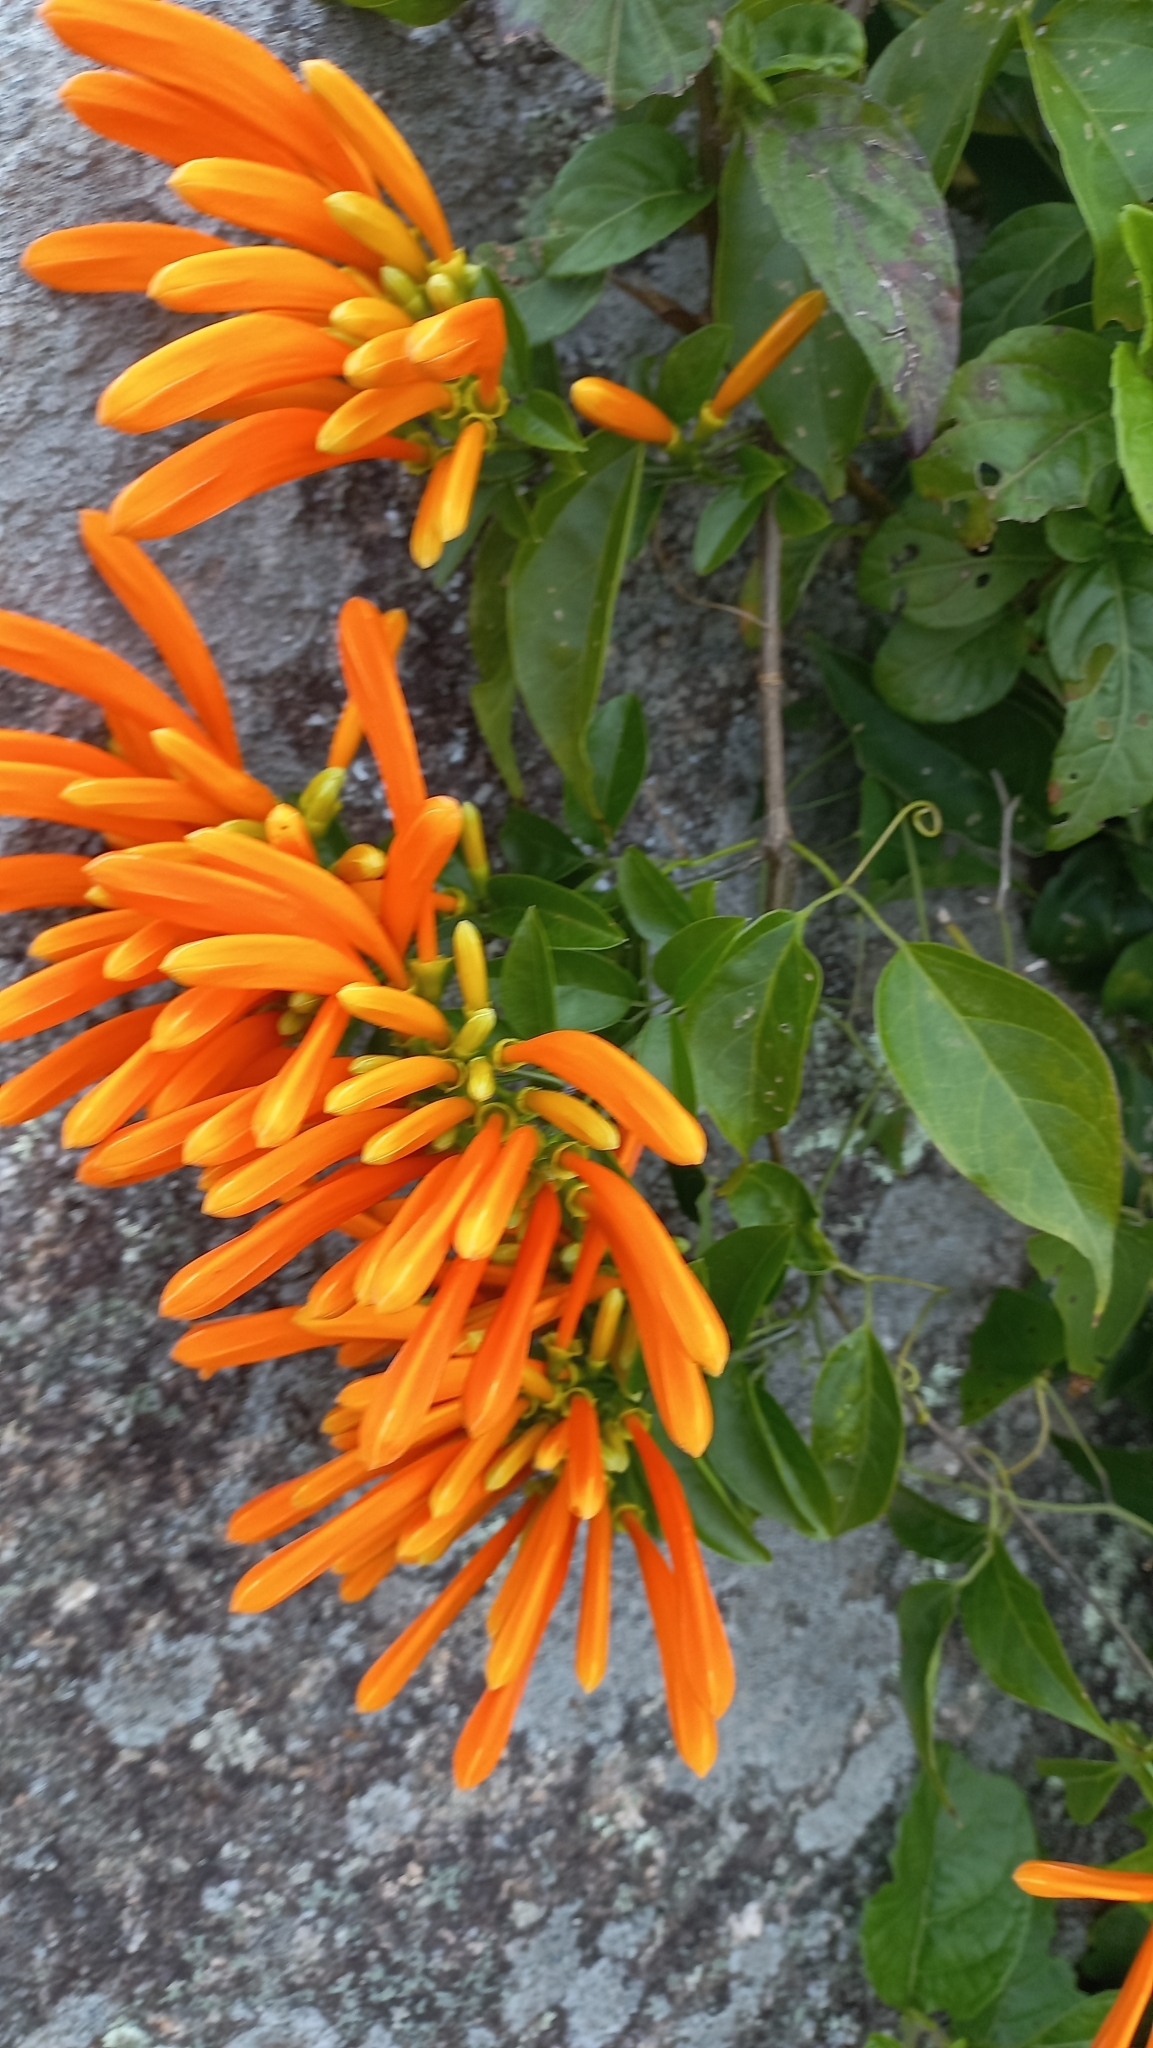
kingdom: Plantae
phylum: Tracheophyta
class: Magnoliopsida
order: Lamiales
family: Bignoniaceae
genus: Pyrostegia
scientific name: Pyrostegia venusta
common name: Flamevine
